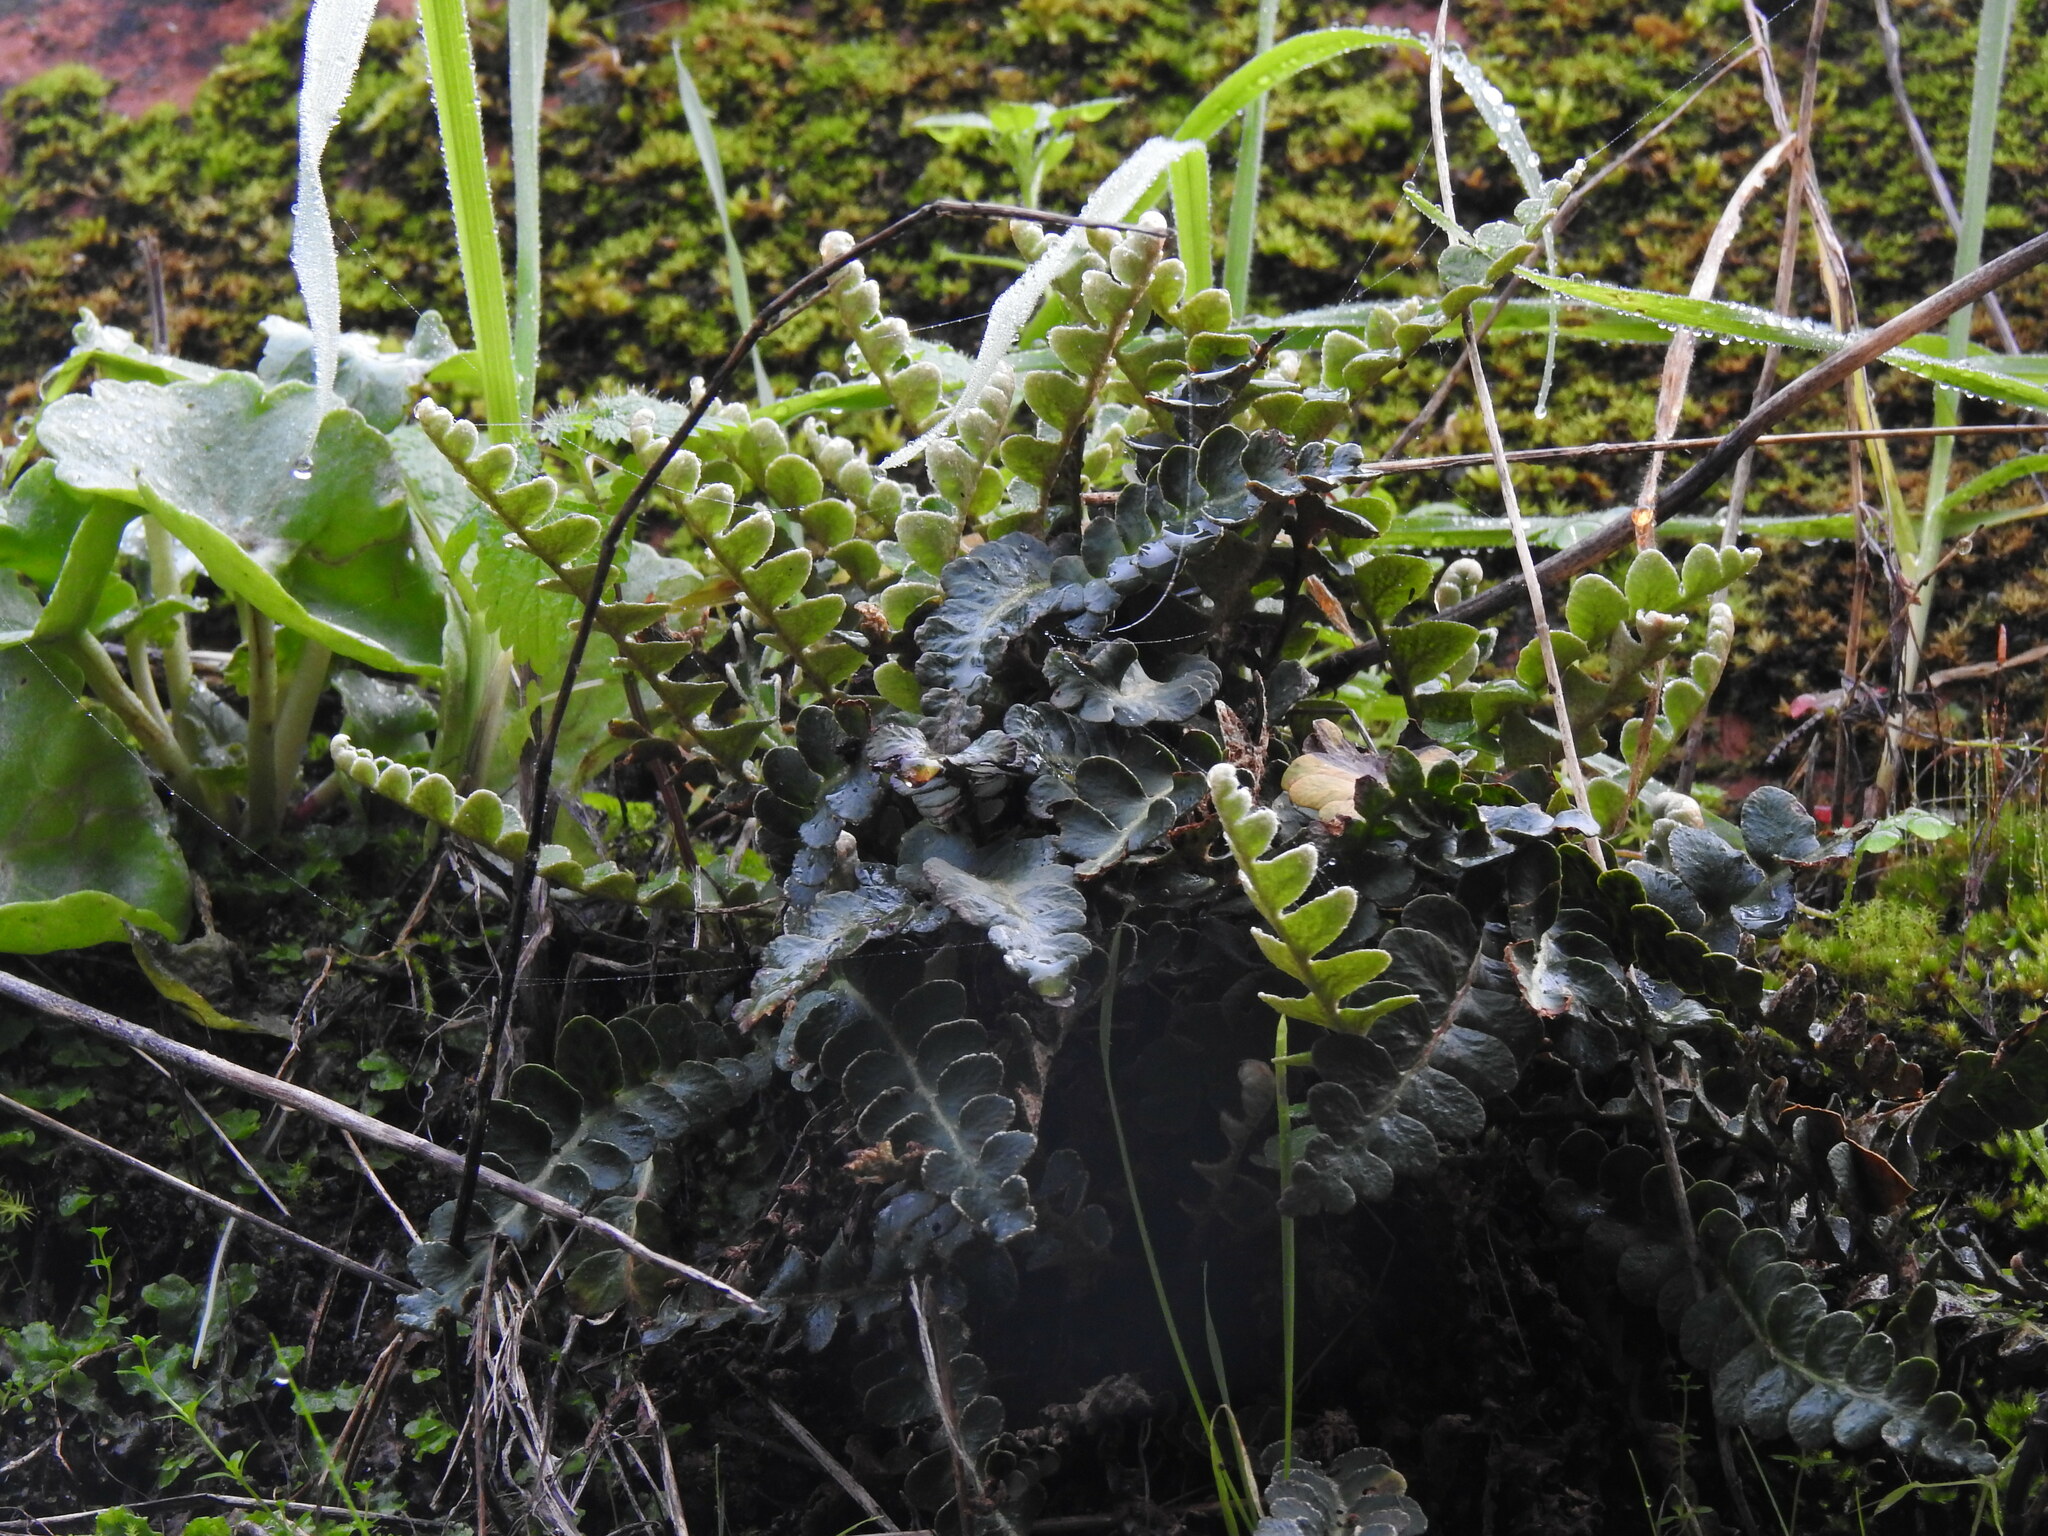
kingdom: Plantae
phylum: Tracheophyta
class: Polypodiopsida
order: Polypodiales
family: Aspleniaceae
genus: Asplenium
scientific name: Asplenium ceterach
